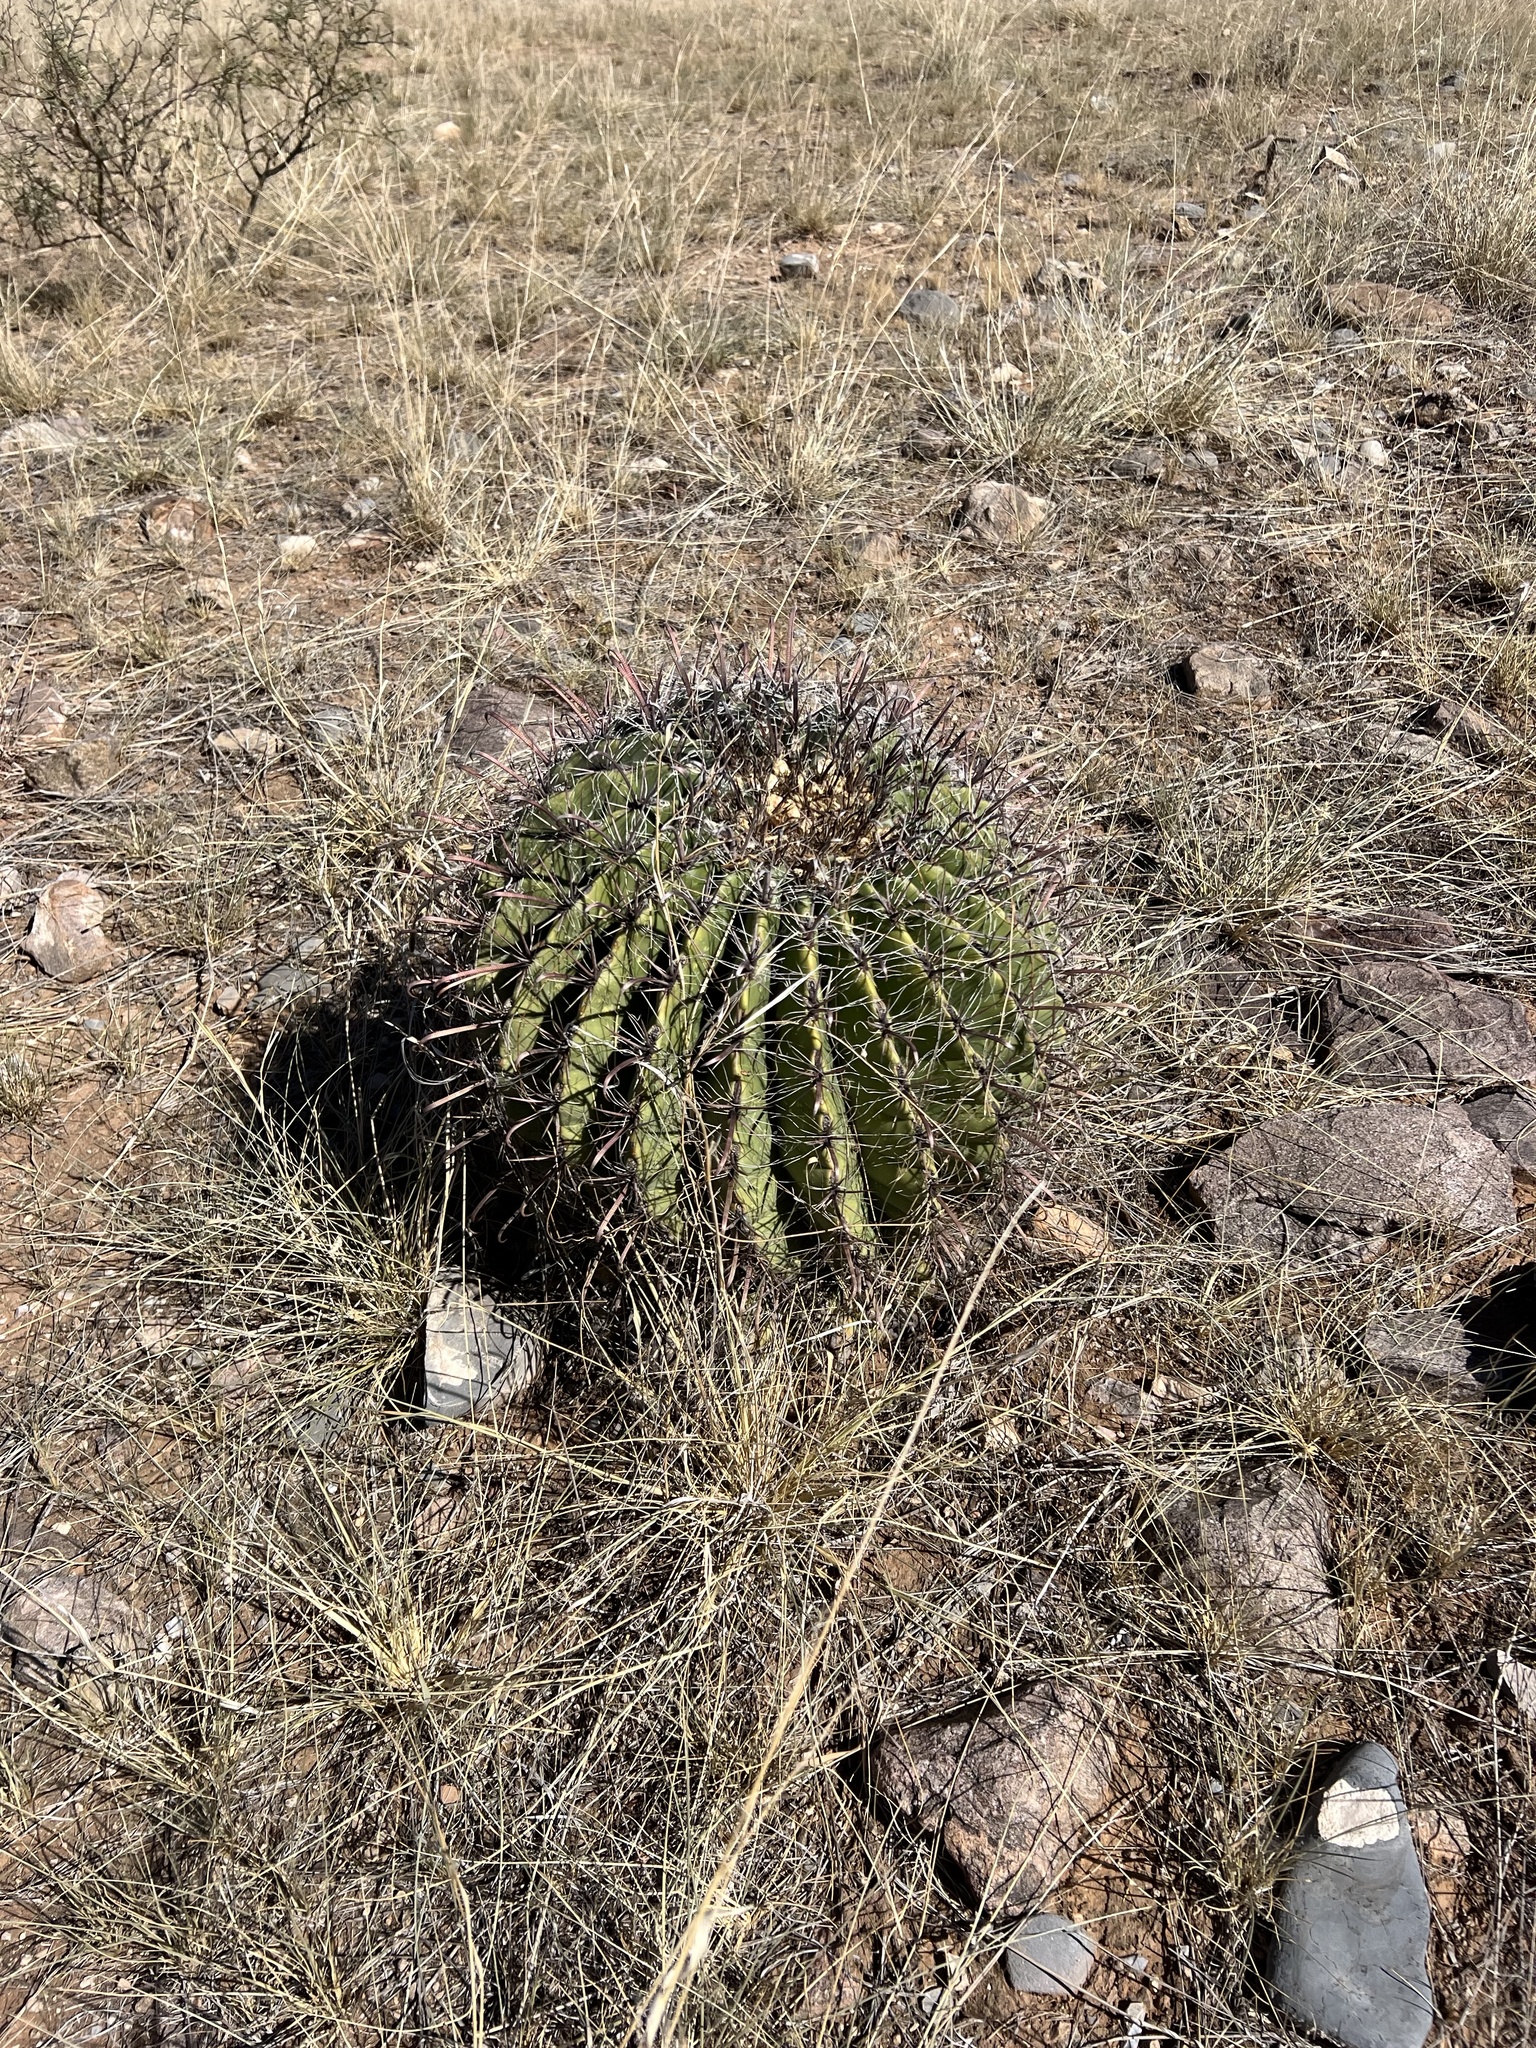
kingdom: Plantae
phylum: Tracheophyta
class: Magnoliopsida
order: Caryophyllales
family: Cactaceae
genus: Ferocactus
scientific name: Ferocactus wislizeni
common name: Candy barrel cactus
